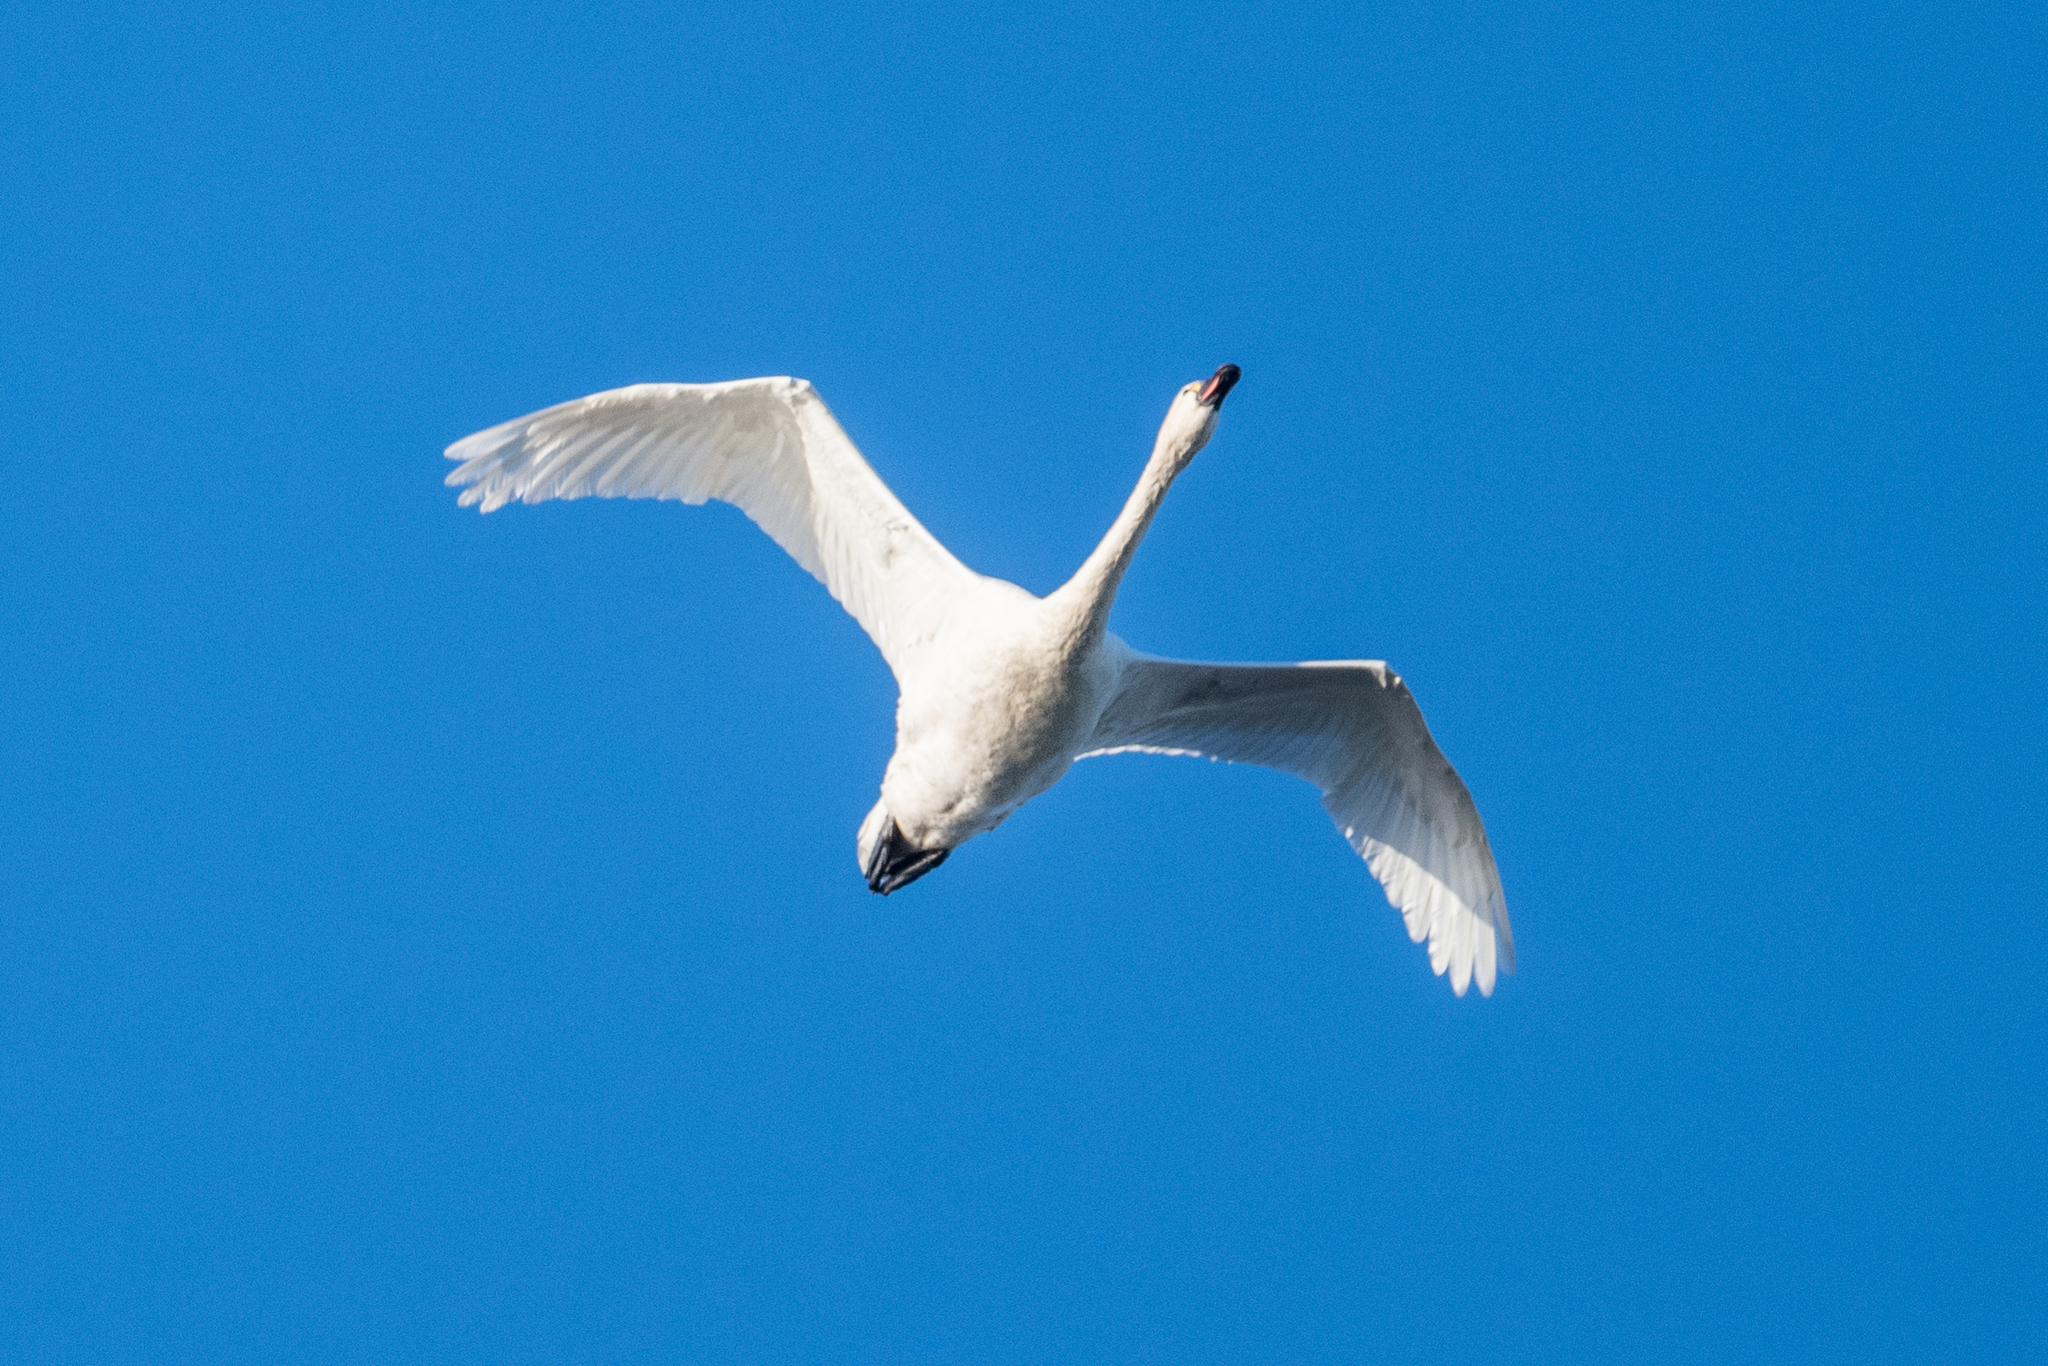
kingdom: Animalia
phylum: Chordata
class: Aves
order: Anseriformes
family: Anatidae
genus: Cygnus
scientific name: Cygnus columbianus
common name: Tundra swan
